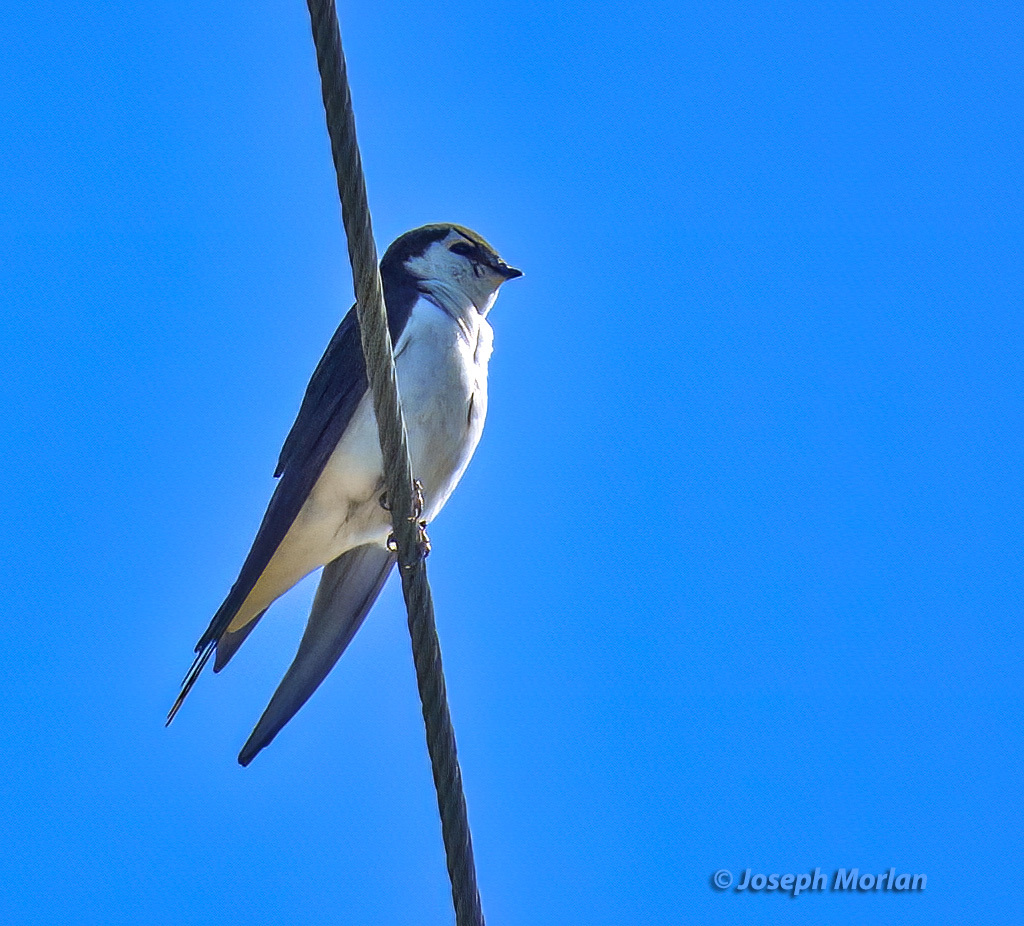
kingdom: Animalia
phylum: Chordata
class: Aves
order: Passeriformes
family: Hirundinidae
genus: Tachycineta
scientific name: Tachycineta thalassina
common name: Violet-green swallow
